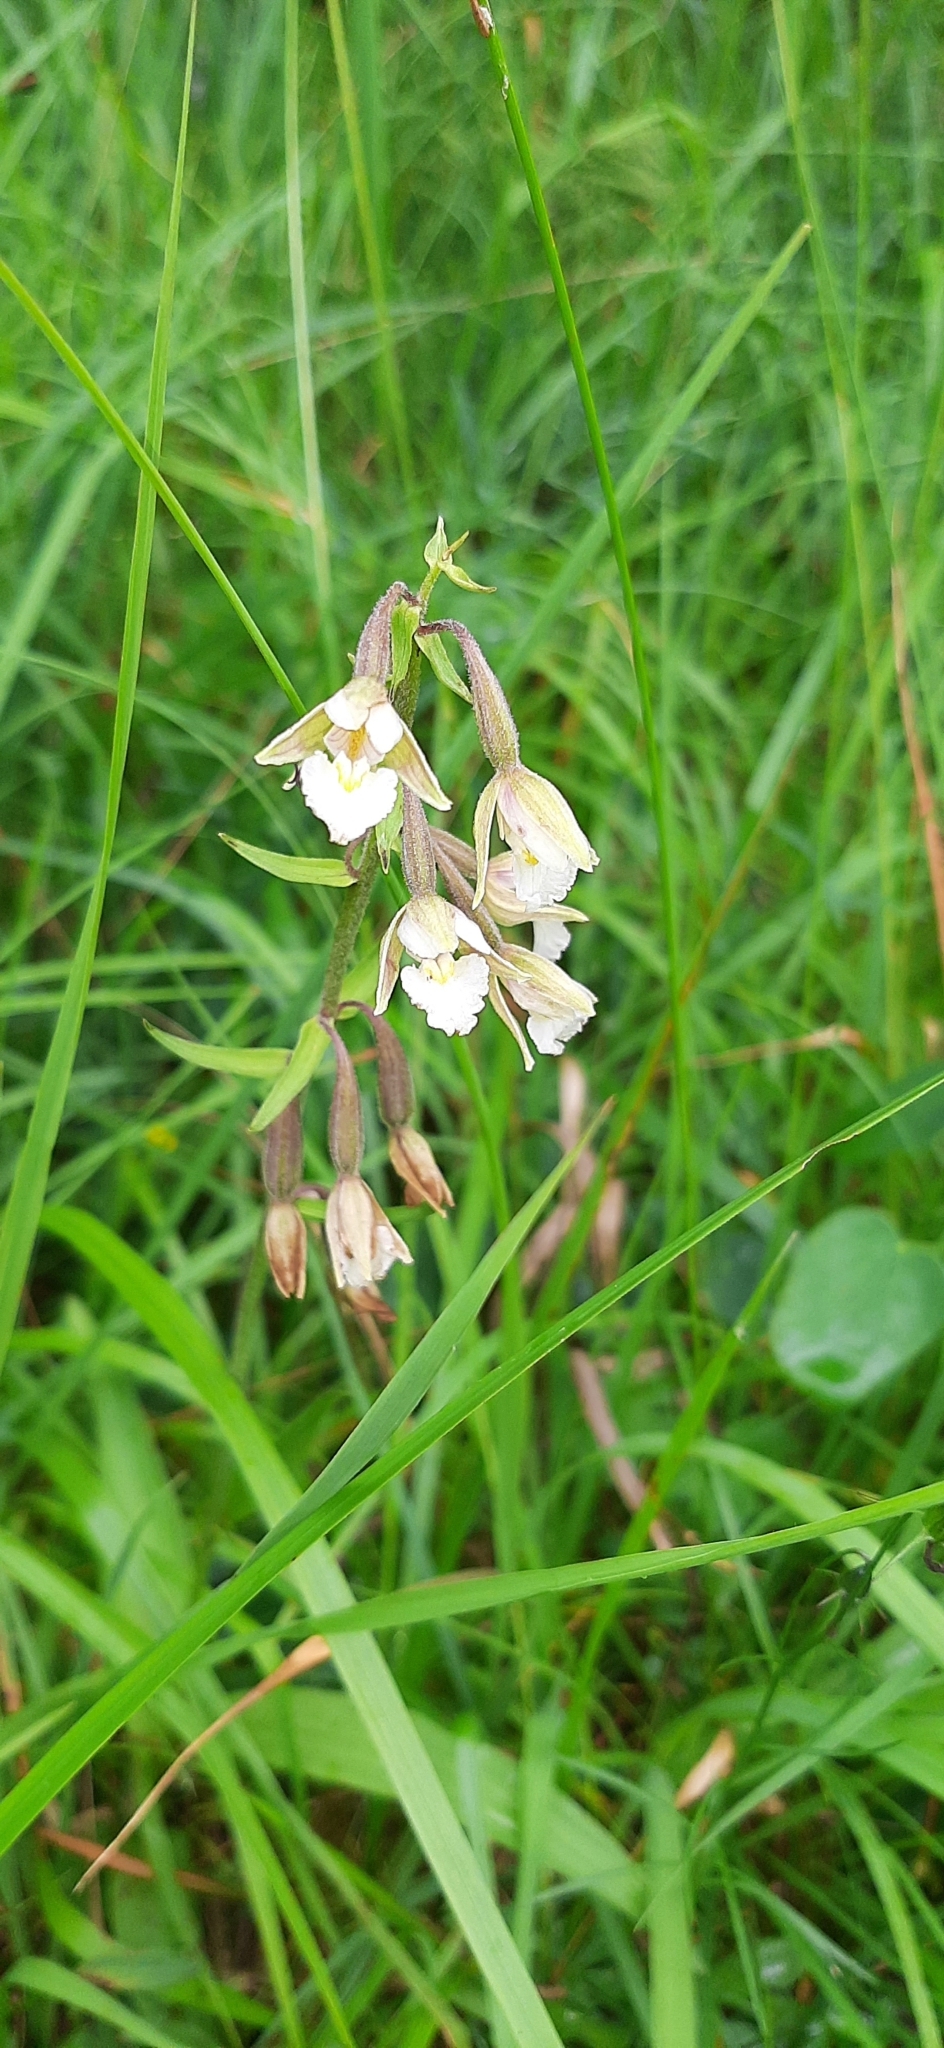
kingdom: Plantae
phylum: Tracheophyta
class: Liliopsida
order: Asparagales
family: Orchidaceae
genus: Epipactis
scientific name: Epipactis palustris
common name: Marsh helleborine
